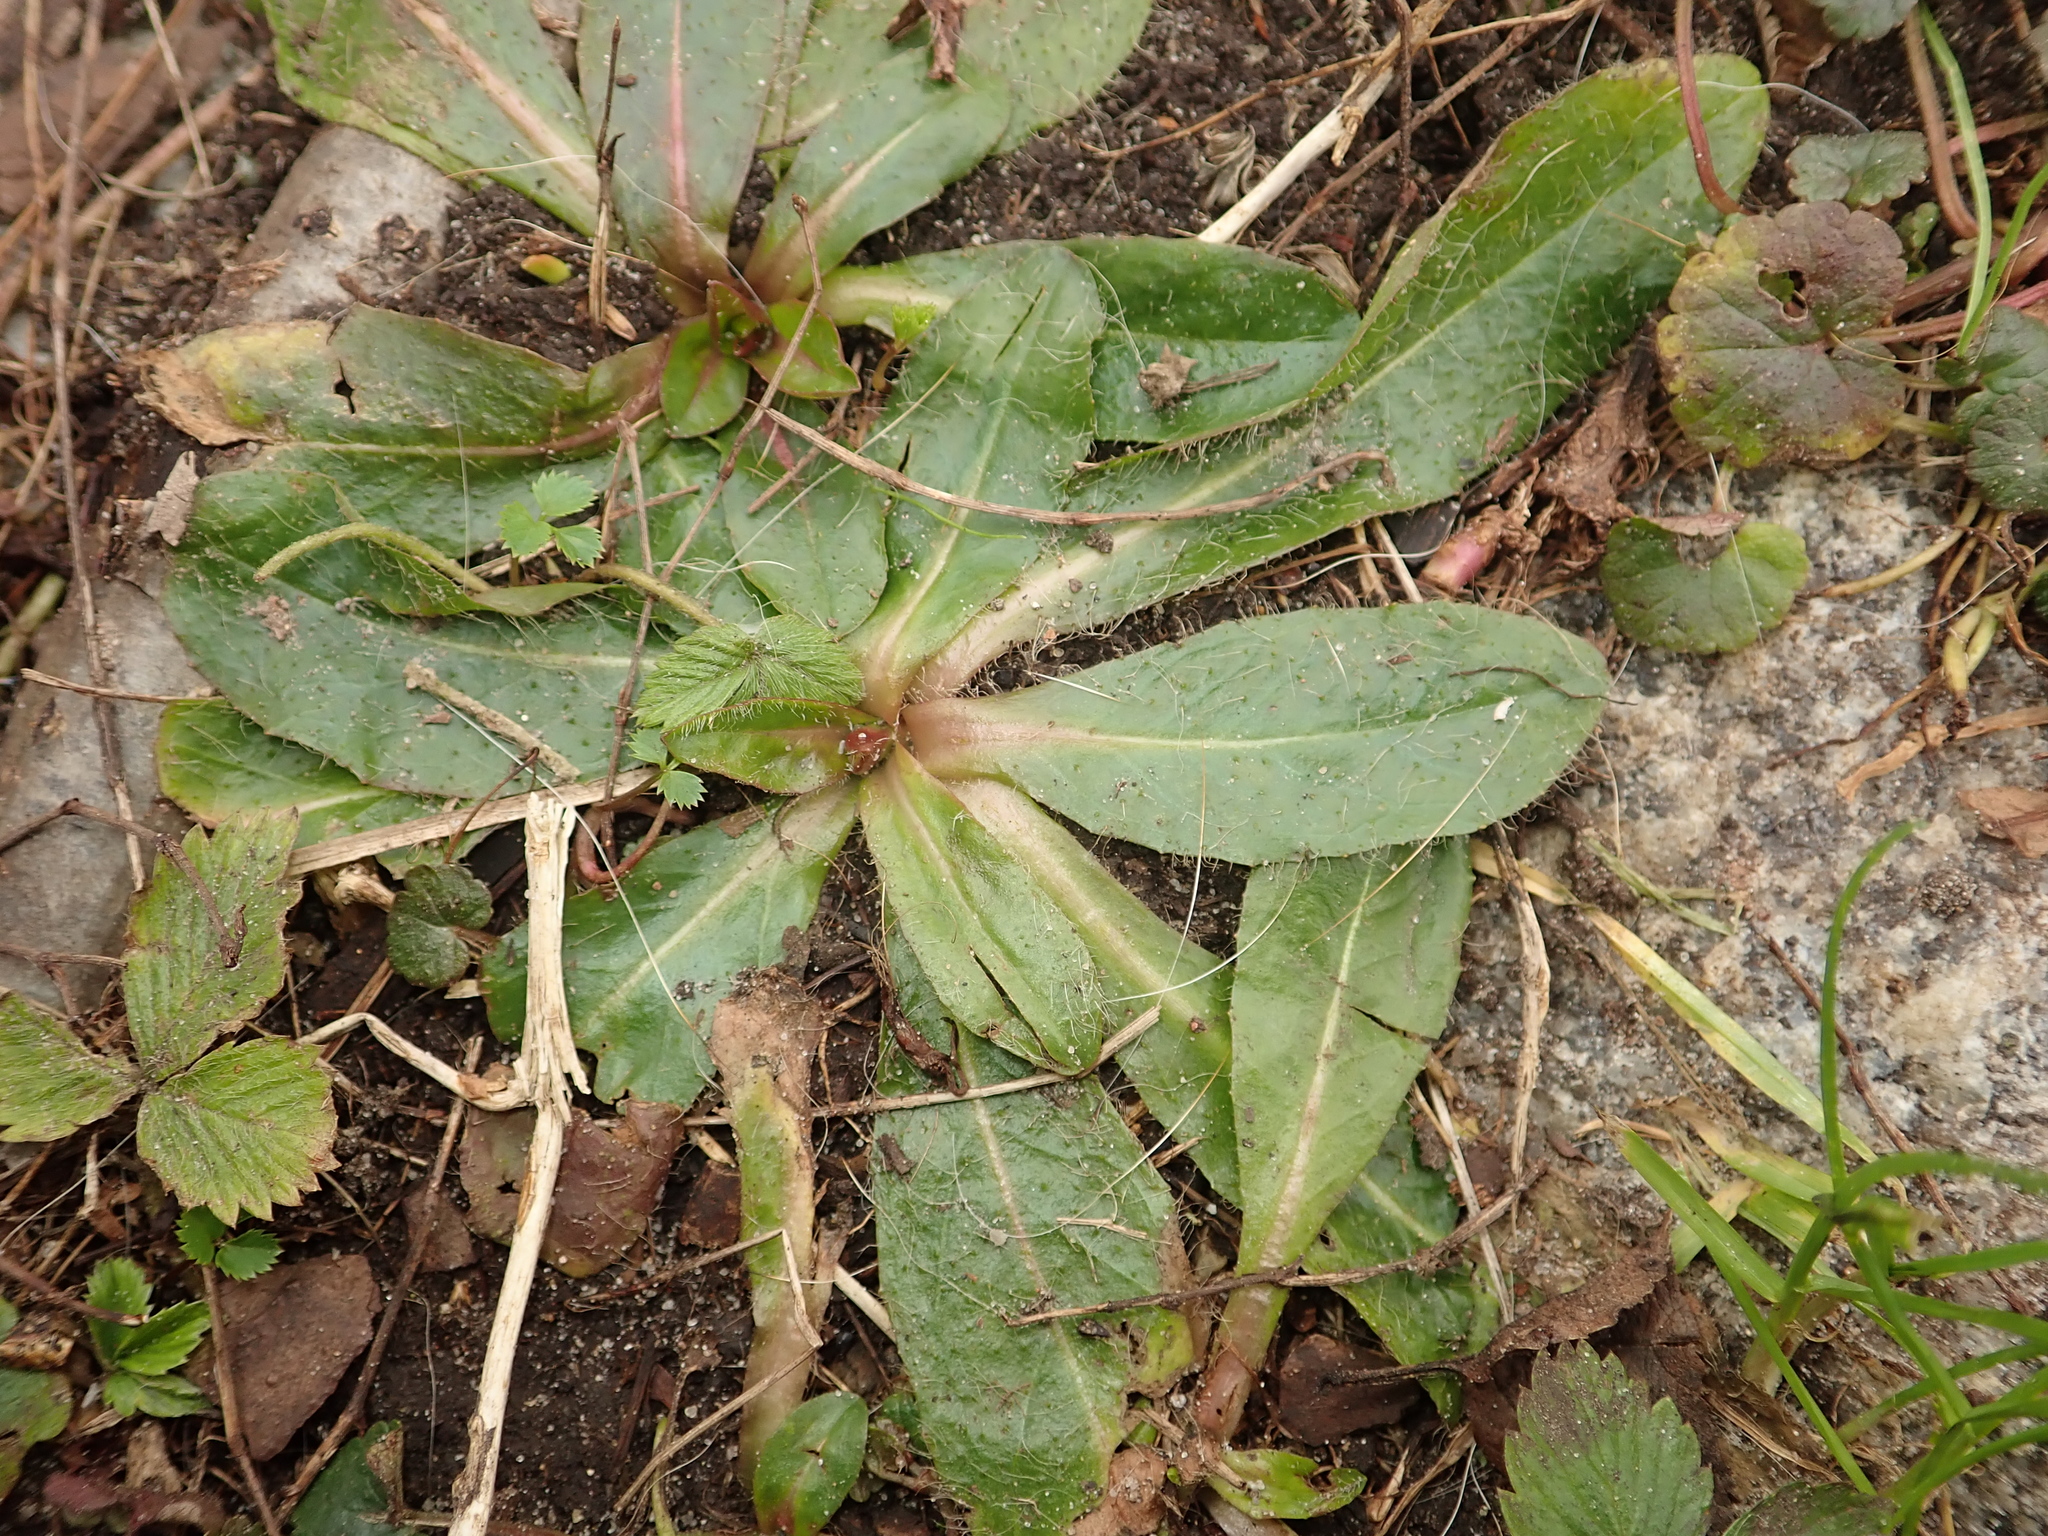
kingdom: Plantae
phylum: Tracheophyta
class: Magnoliopsida
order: Asterales
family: Asteraceae
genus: Pilosella
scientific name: Pilosella officinarum
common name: Mouse-ear hawkweed
